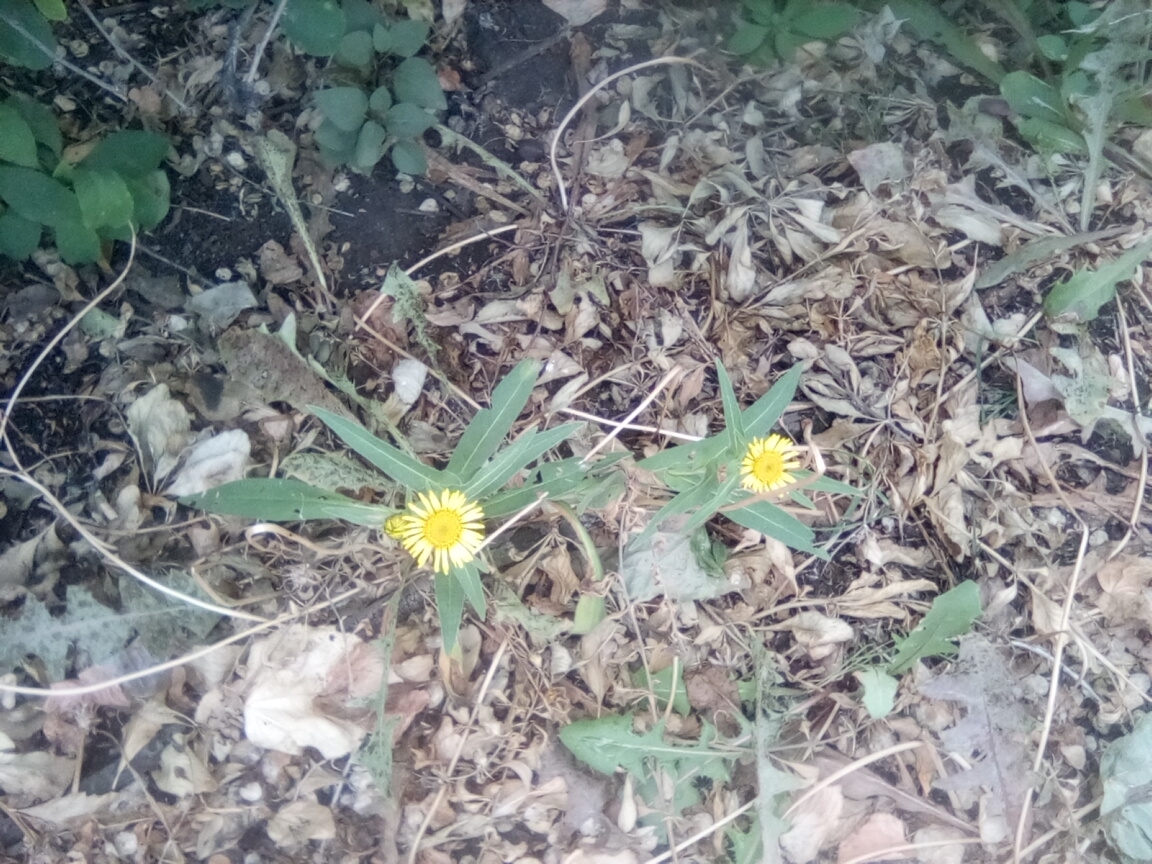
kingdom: Plantae
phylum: Tracheophyta
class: Magnoliopsida
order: Asterales
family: Asteraceae
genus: Pentanema
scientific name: Pentanema britannicum
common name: British elecampane
